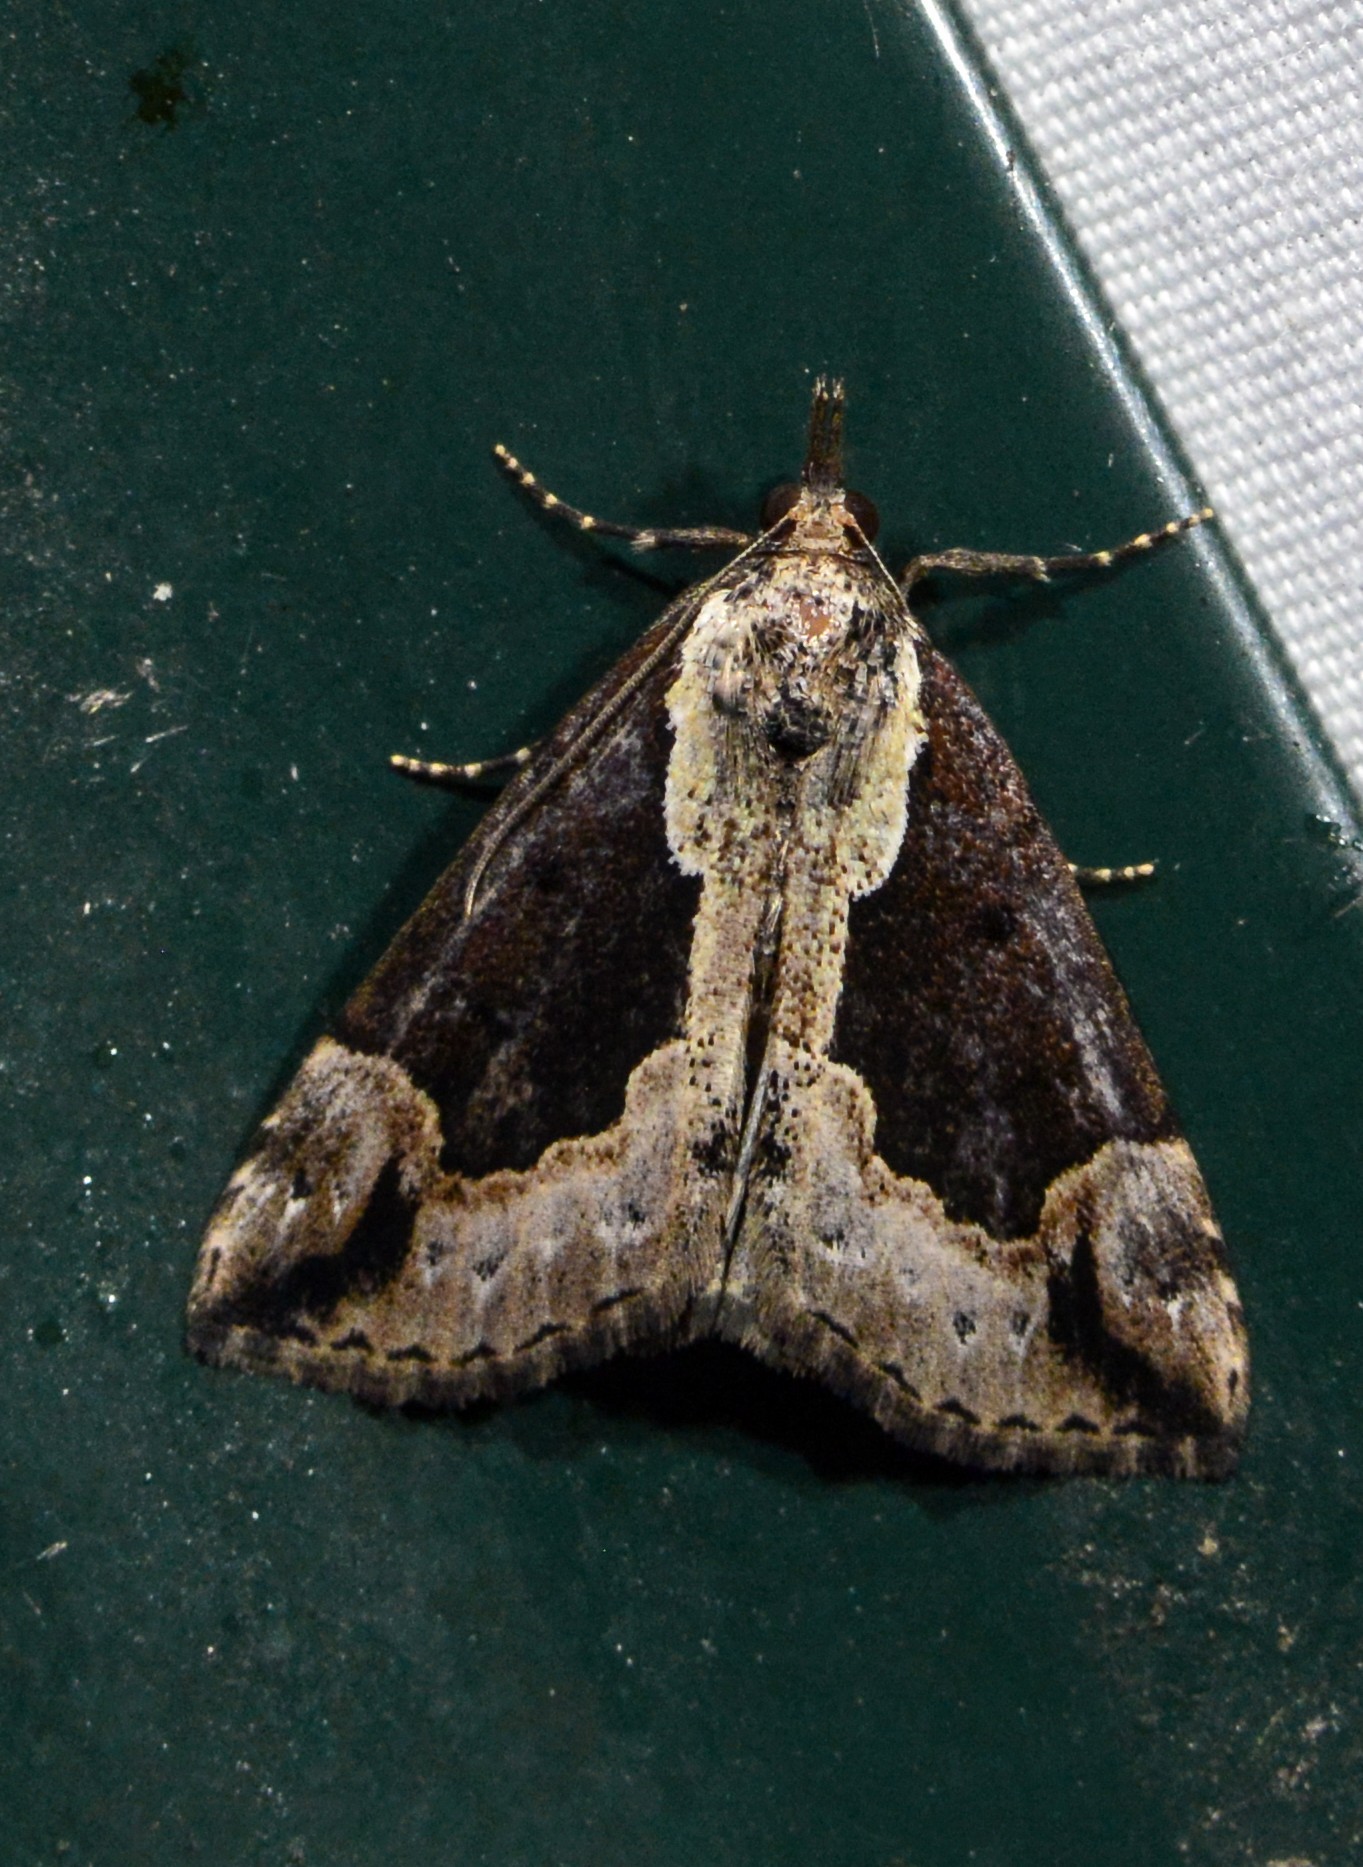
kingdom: Animalia
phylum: Arthropoda
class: Insecta
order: Lepidoptera
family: Erebidae
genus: Hypena
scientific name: Hypena baltimoralis
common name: Baltimore snout
